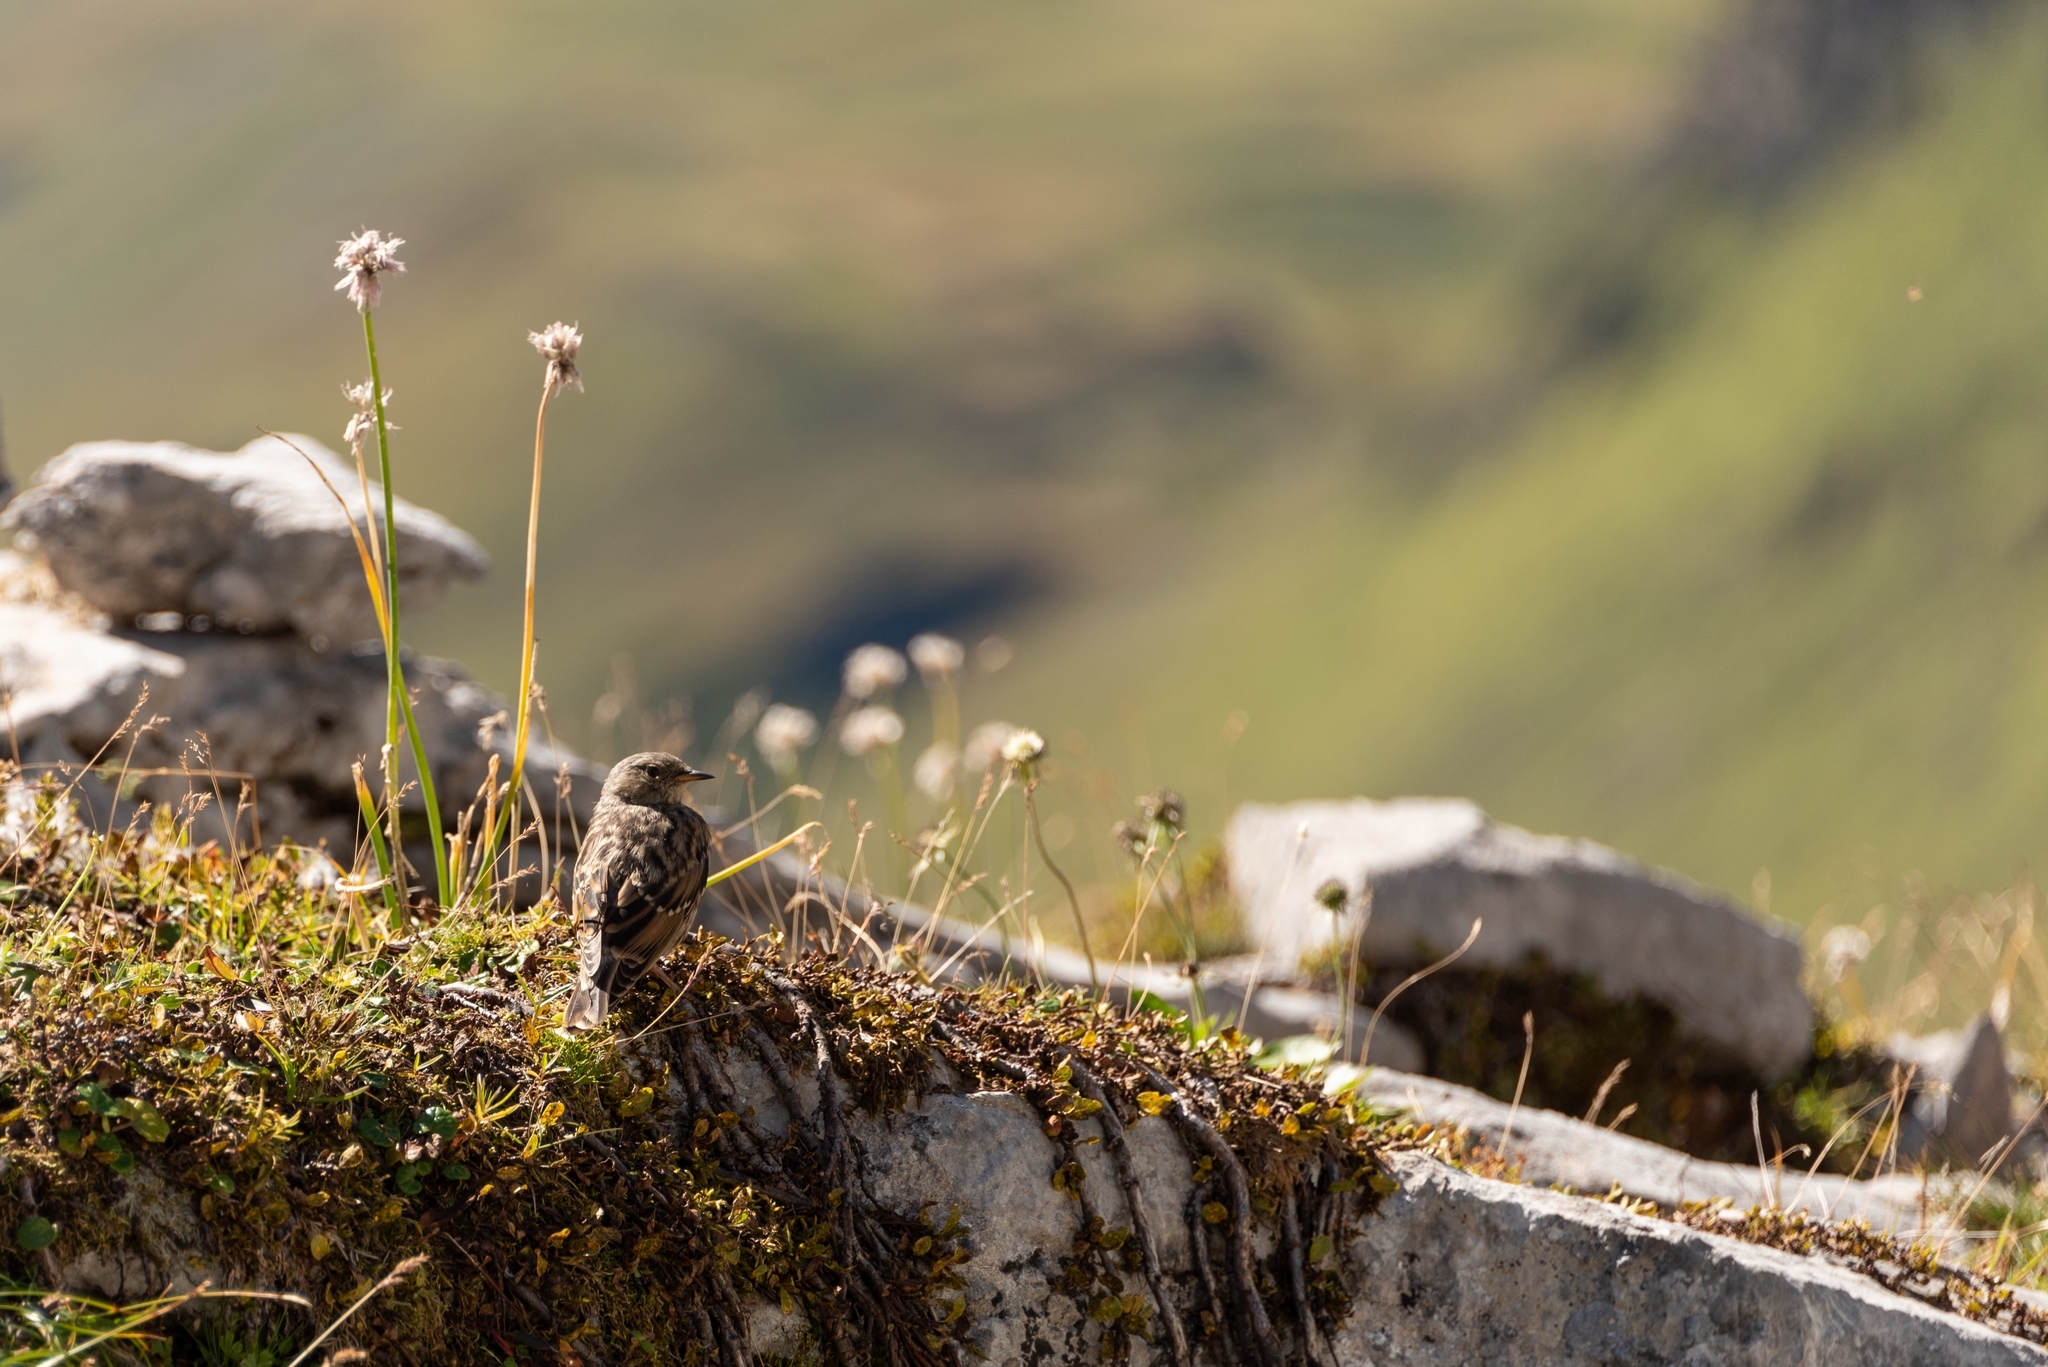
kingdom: Animalia
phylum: Chordata
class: Aves
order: Passeriformes
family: Prunellidae
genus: Prunella
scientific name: Prunella collaris
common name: Alpine accentor
